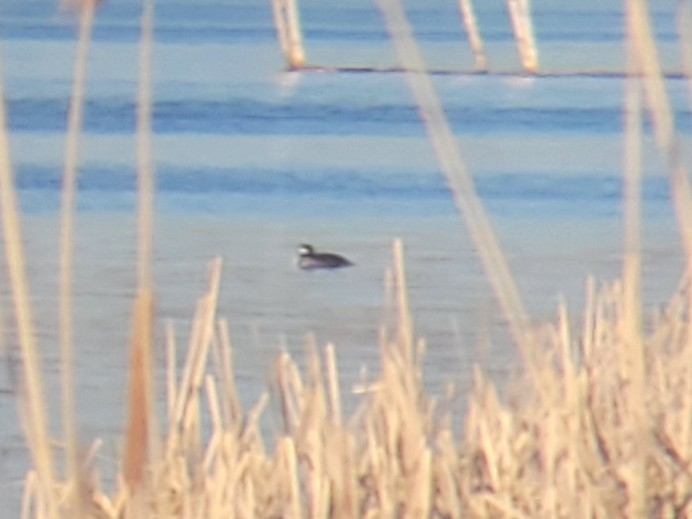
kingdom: Animalia
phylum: Chordata
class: Aves
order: Anseriformes
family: Anatidae
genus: Lophodytes
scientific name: Lophodytes cucullatus
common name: Hooded merganser
